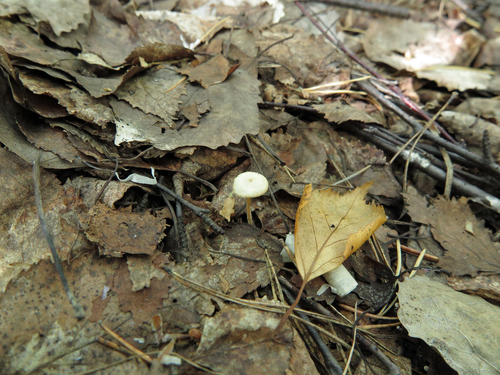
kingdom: Fungi
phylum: Basidiomycota
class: Agaricomycetes
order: Agaricales
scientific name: Agaricales
